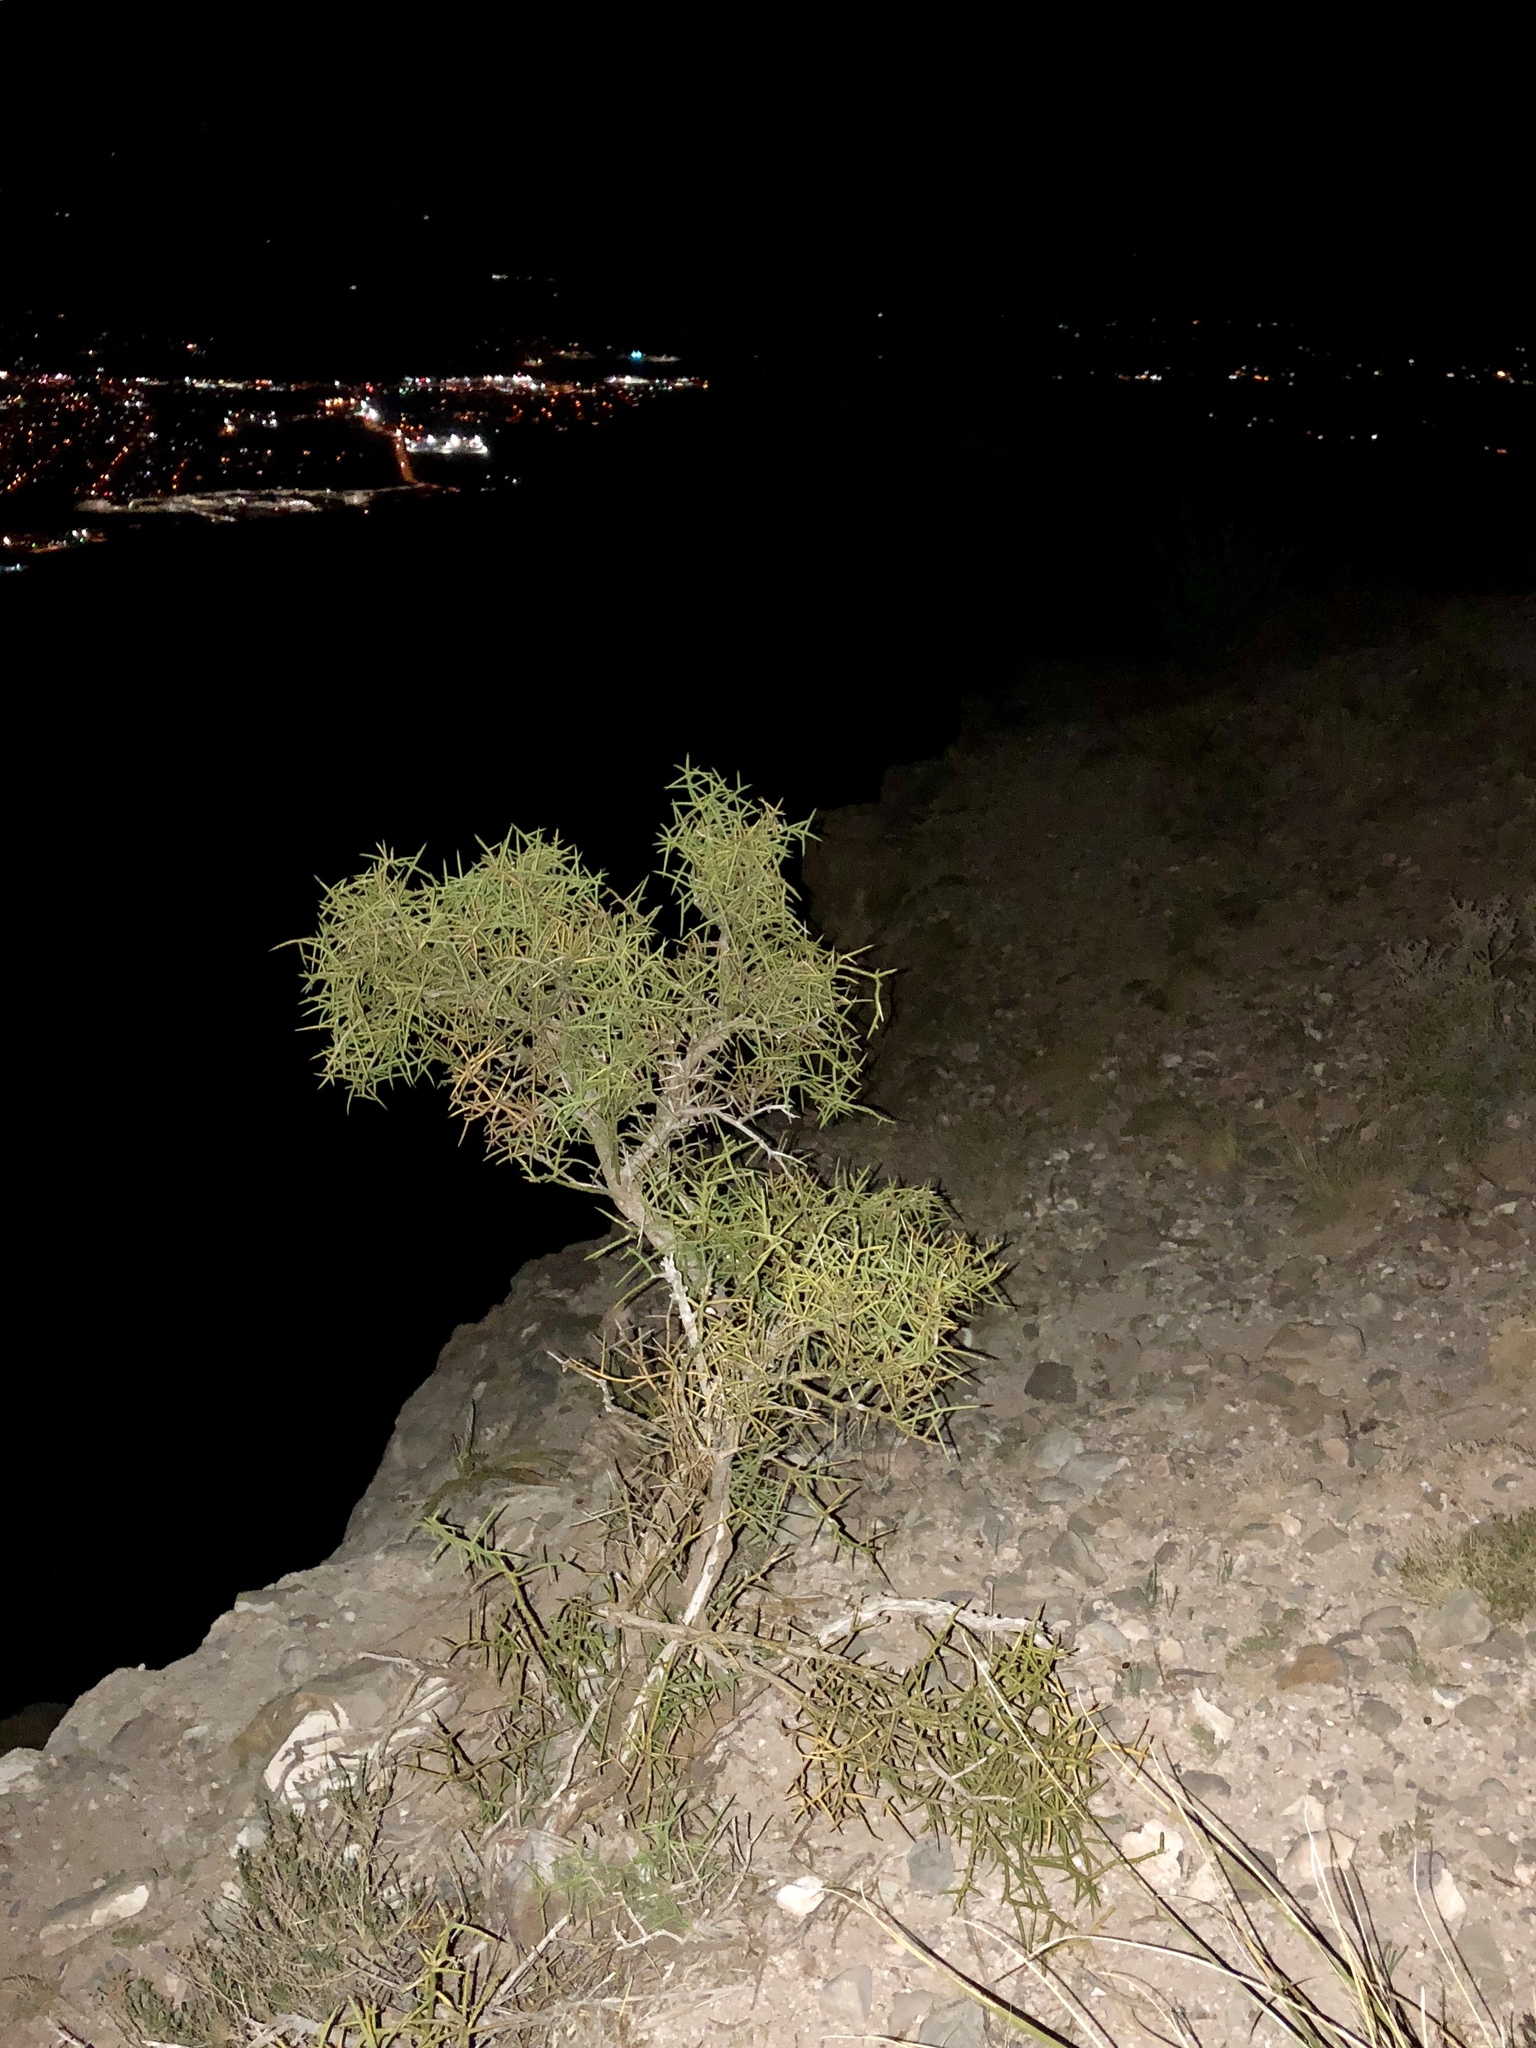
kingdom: Plantae
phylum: Tracheophyta
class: Magnoliopsida
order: Brassicales
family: Koeberliniaceae
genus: Koeberlinia
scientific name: Koeberlinia spinosa
